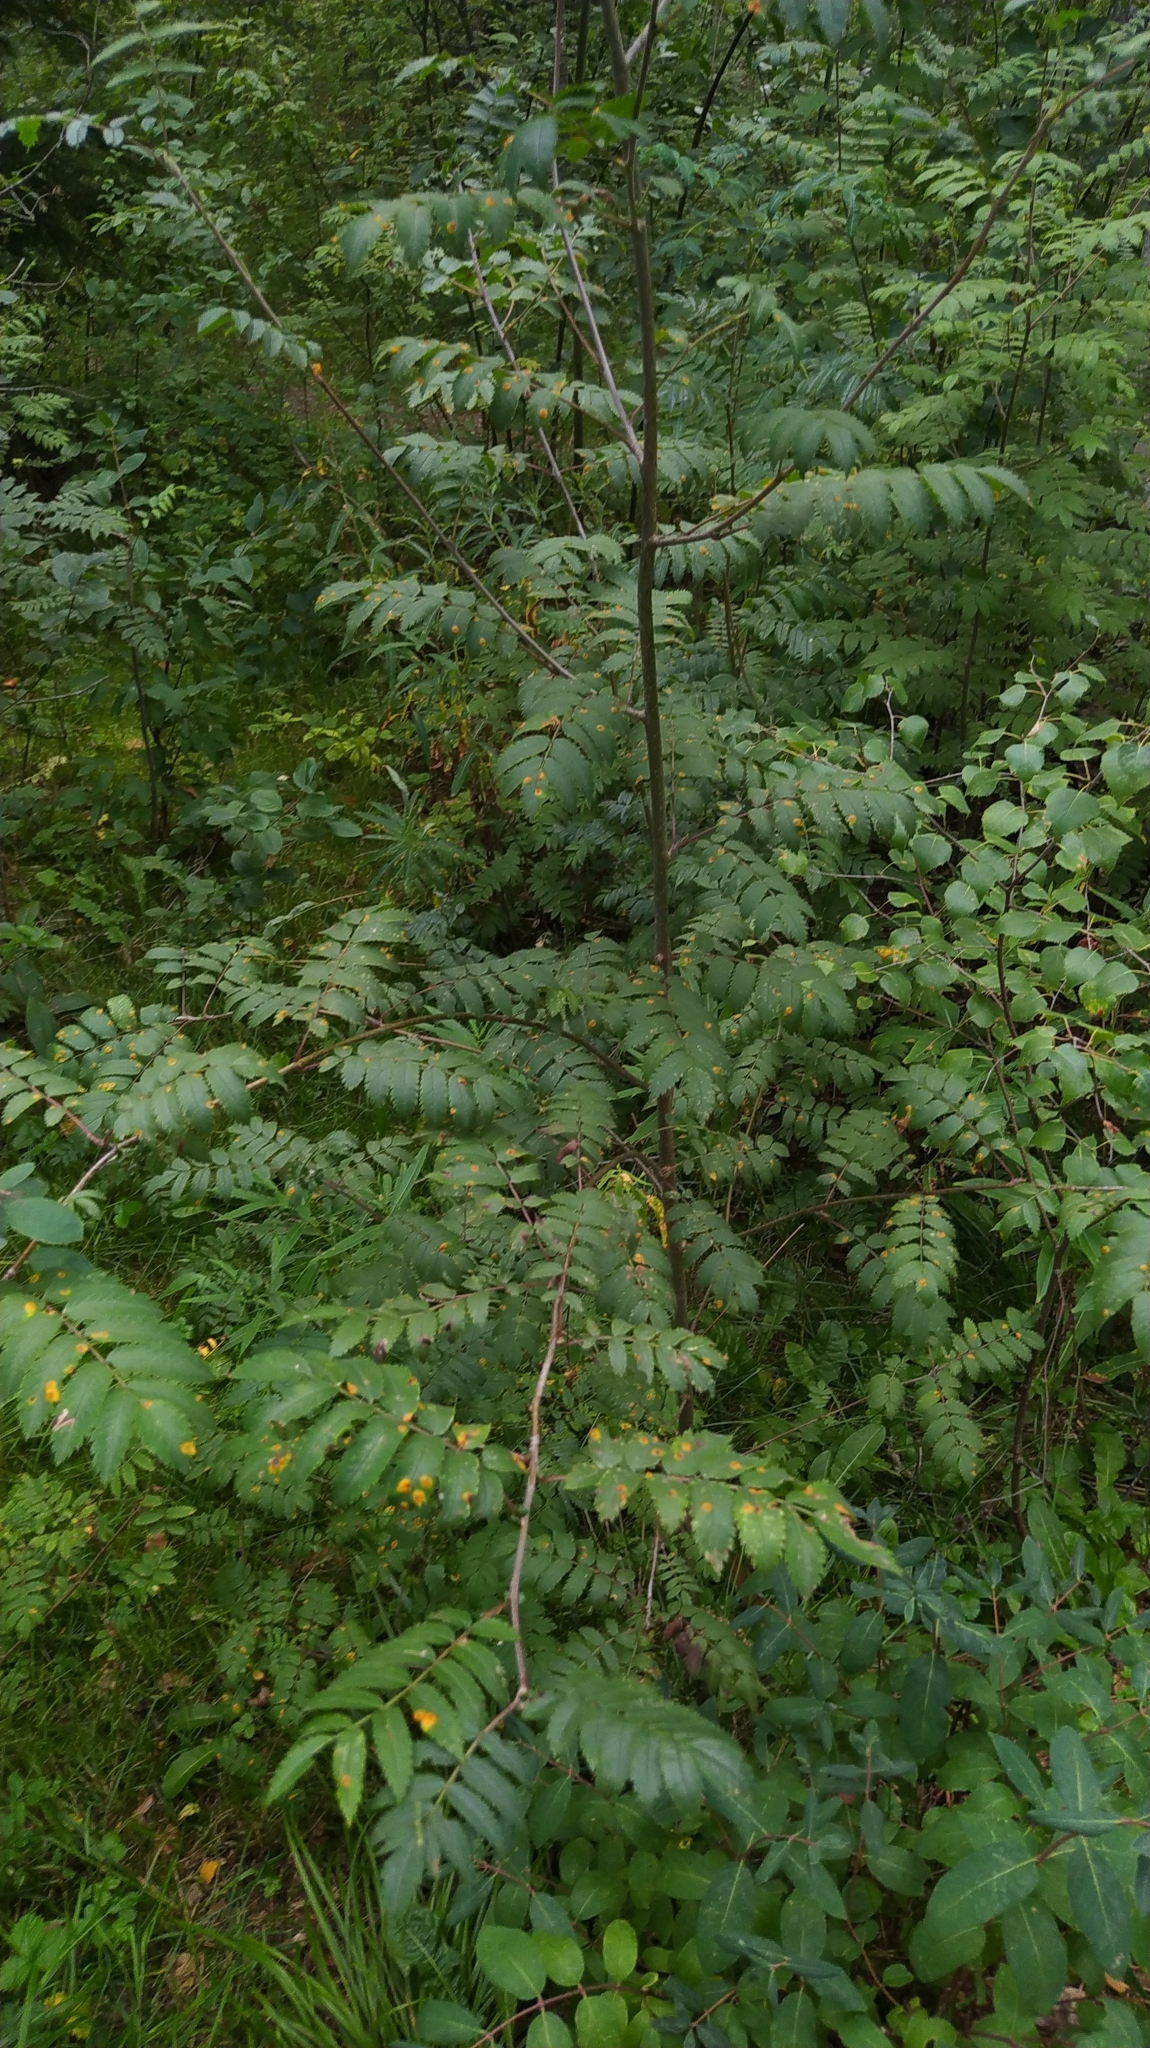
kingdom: Plantae
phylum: Tracheophyta
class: Magnoliopsida
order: Rosales
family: Rosaceae
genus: Sorbus
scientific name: Sorbus aucuparia
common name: Rowan
